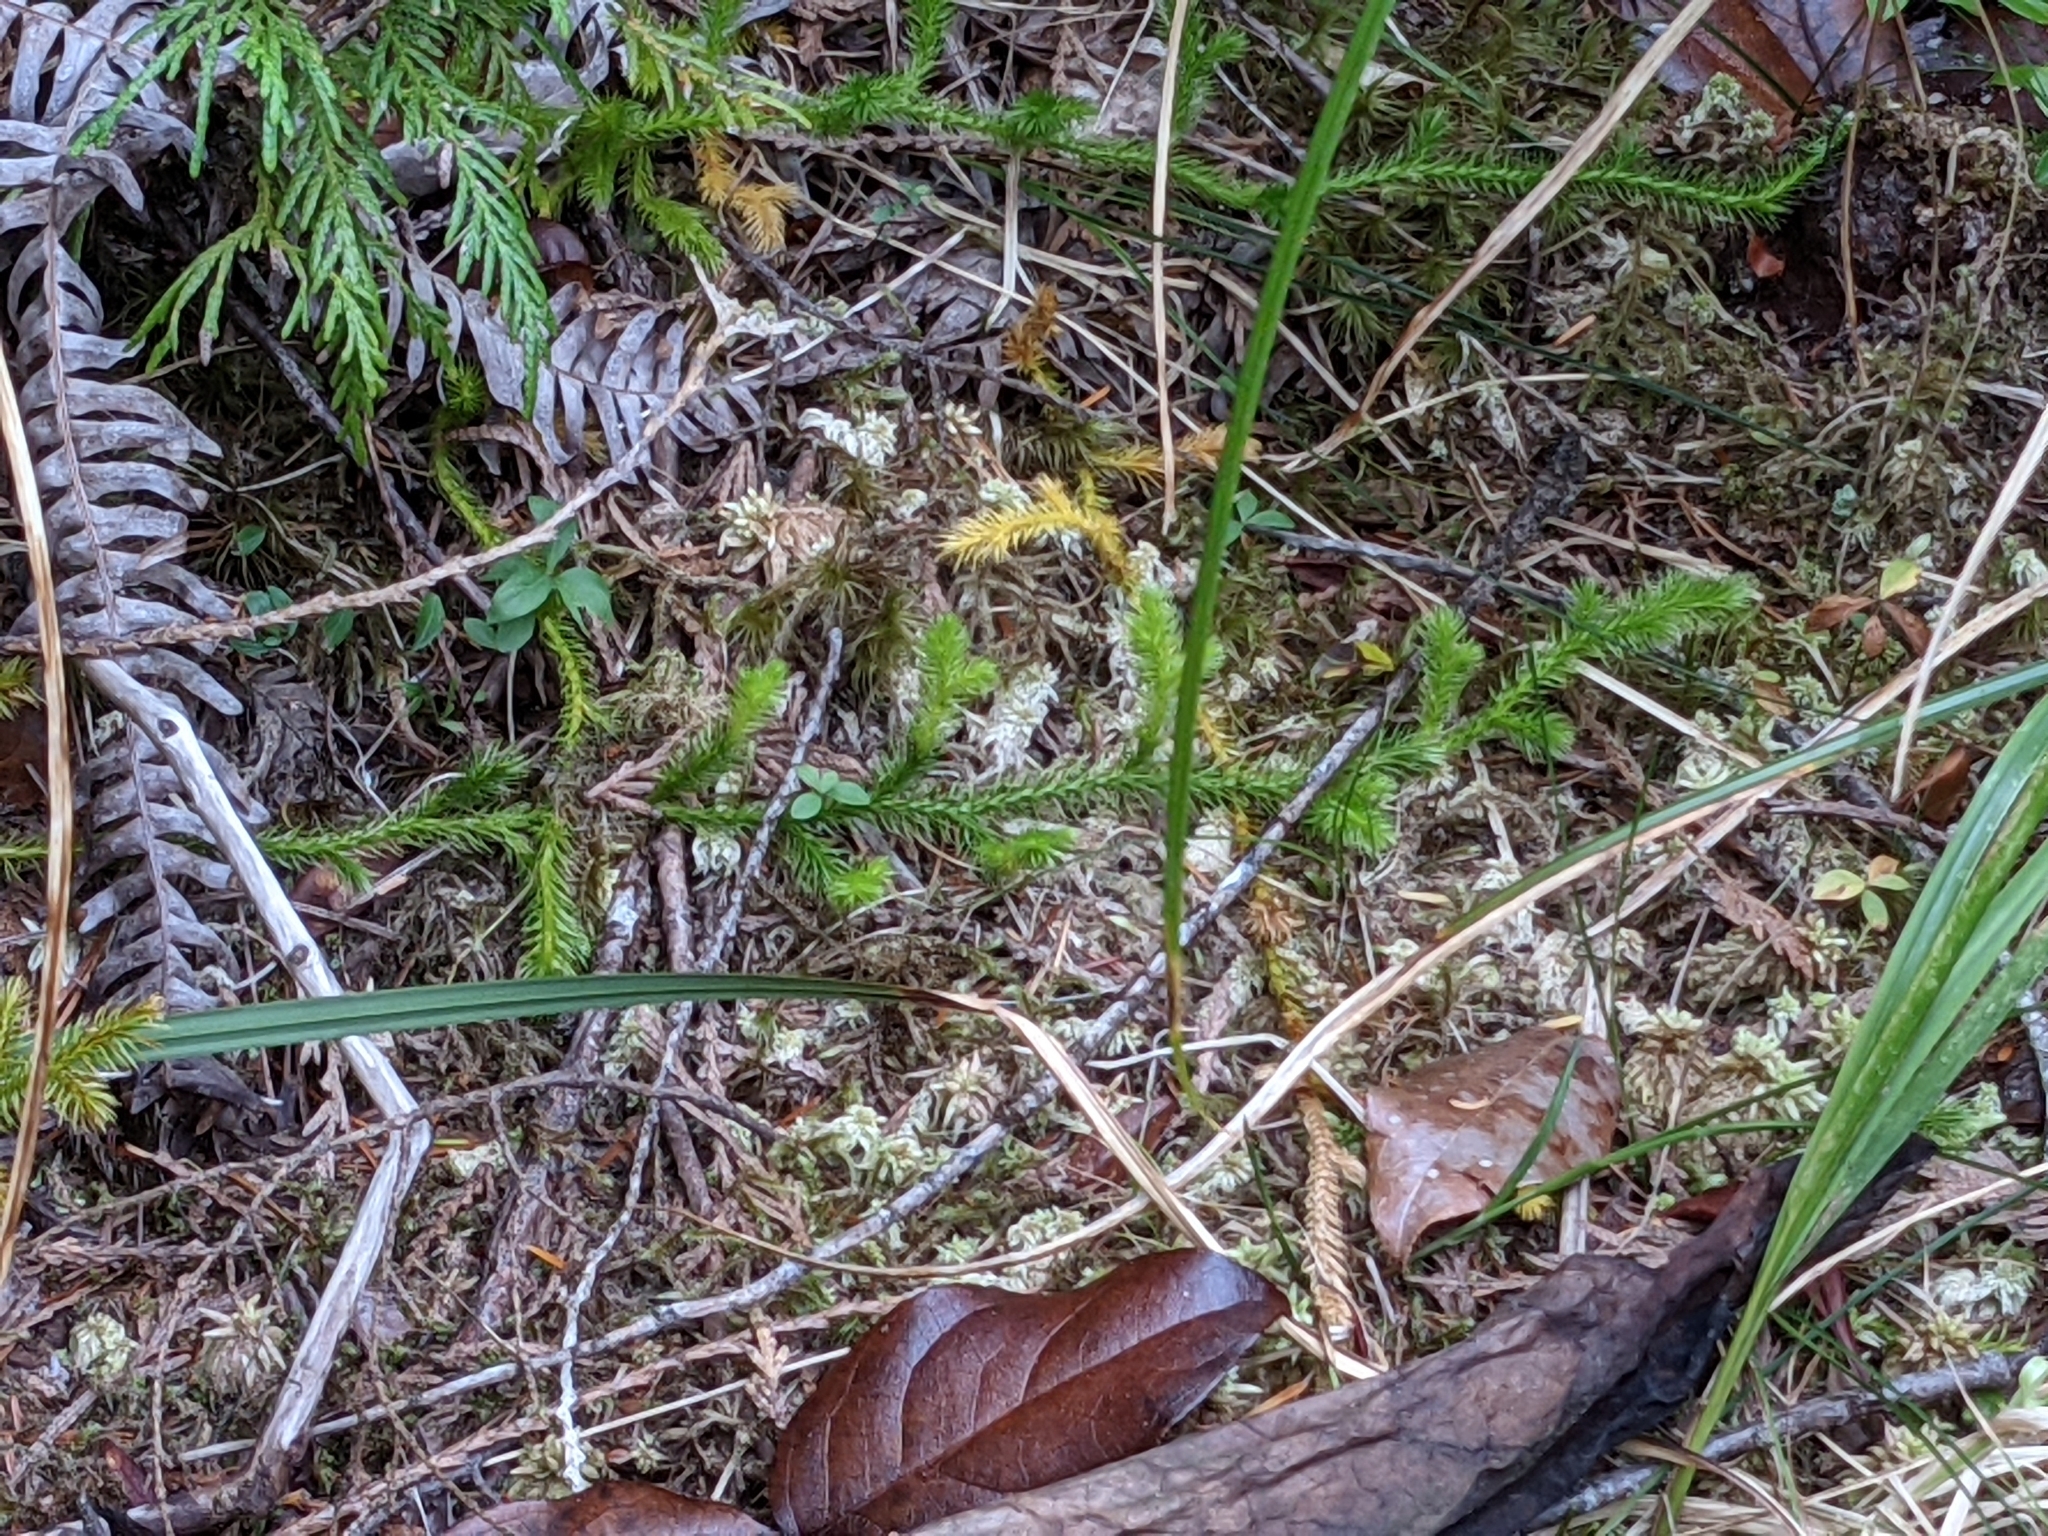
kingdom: Plantae
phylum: Tracheophyta
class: Lycopodiopsida
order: Lycopodiales
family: Lycopodiaceae
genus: Lycopodium
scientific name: Lycopodium clavatum
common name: Stag's-horn clubmoss
